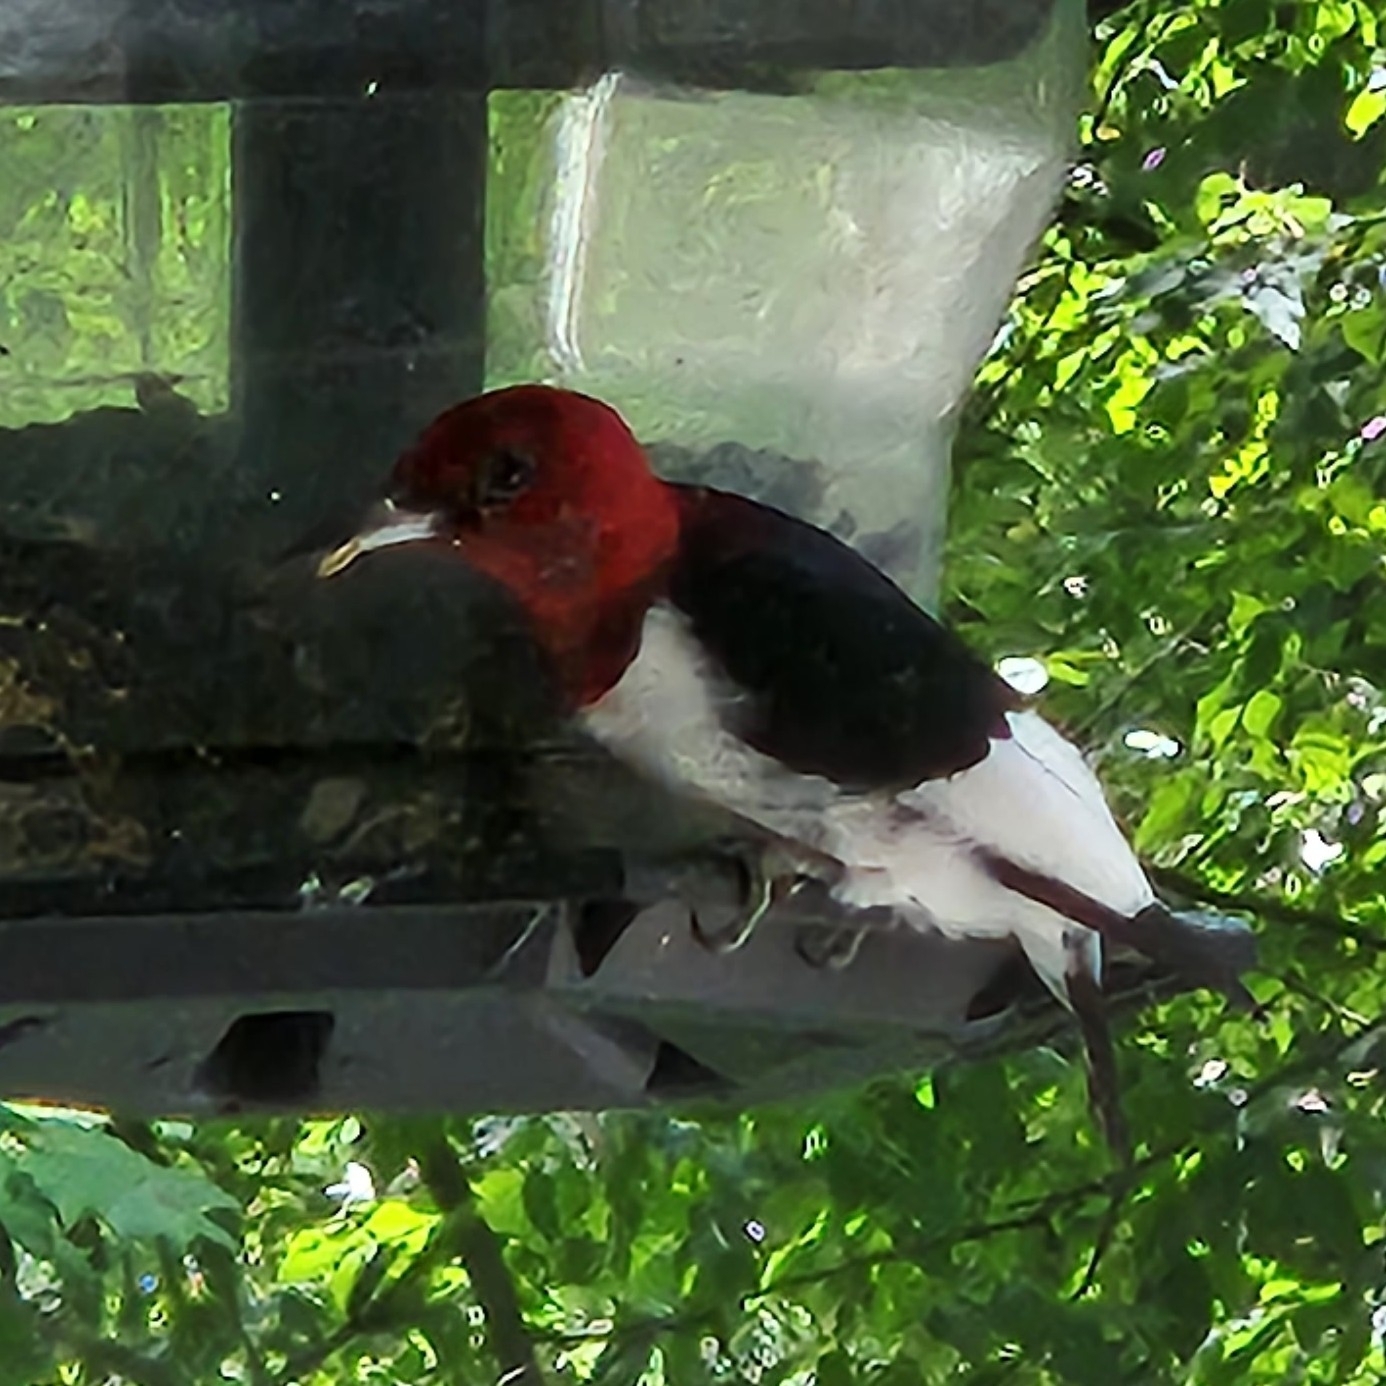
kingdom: Animalia
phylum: Chordata
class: Aves
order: Piciformes
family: Picidae
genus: Melanerpes
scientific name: Melanerpes erythrocephalus
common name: Red-headed woodpecker
